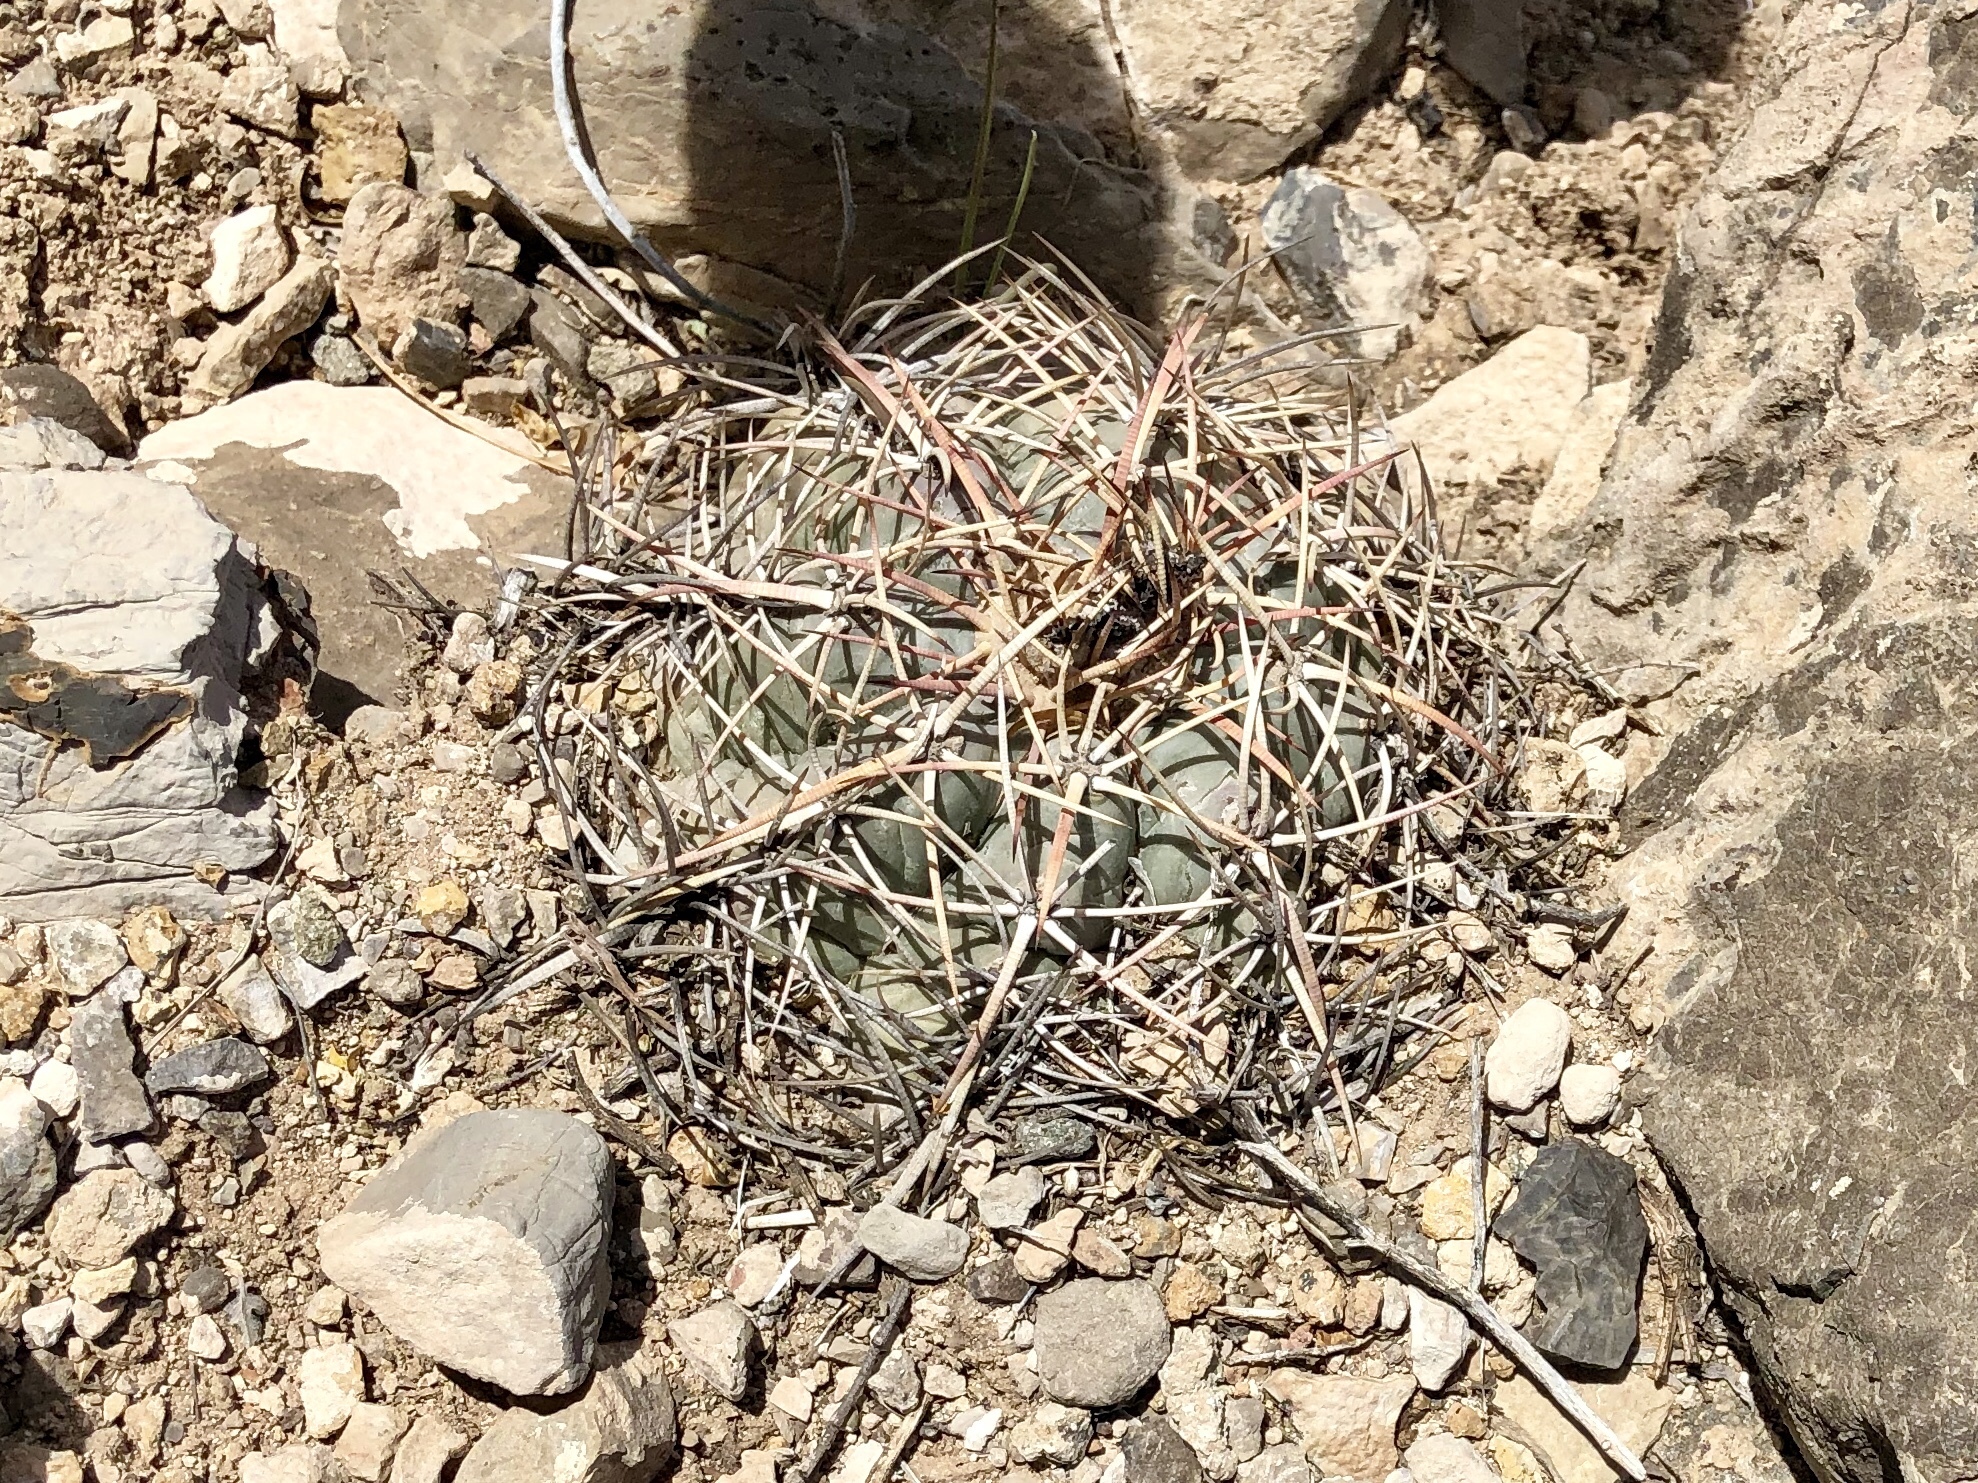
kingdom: Plantae
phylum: Tracheophyta
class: Magnoliopsida
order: Caryophyllales
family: Cactaceae
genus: Echinocactus
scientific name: Echinocactus horizonthalonius
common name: Devilshead
